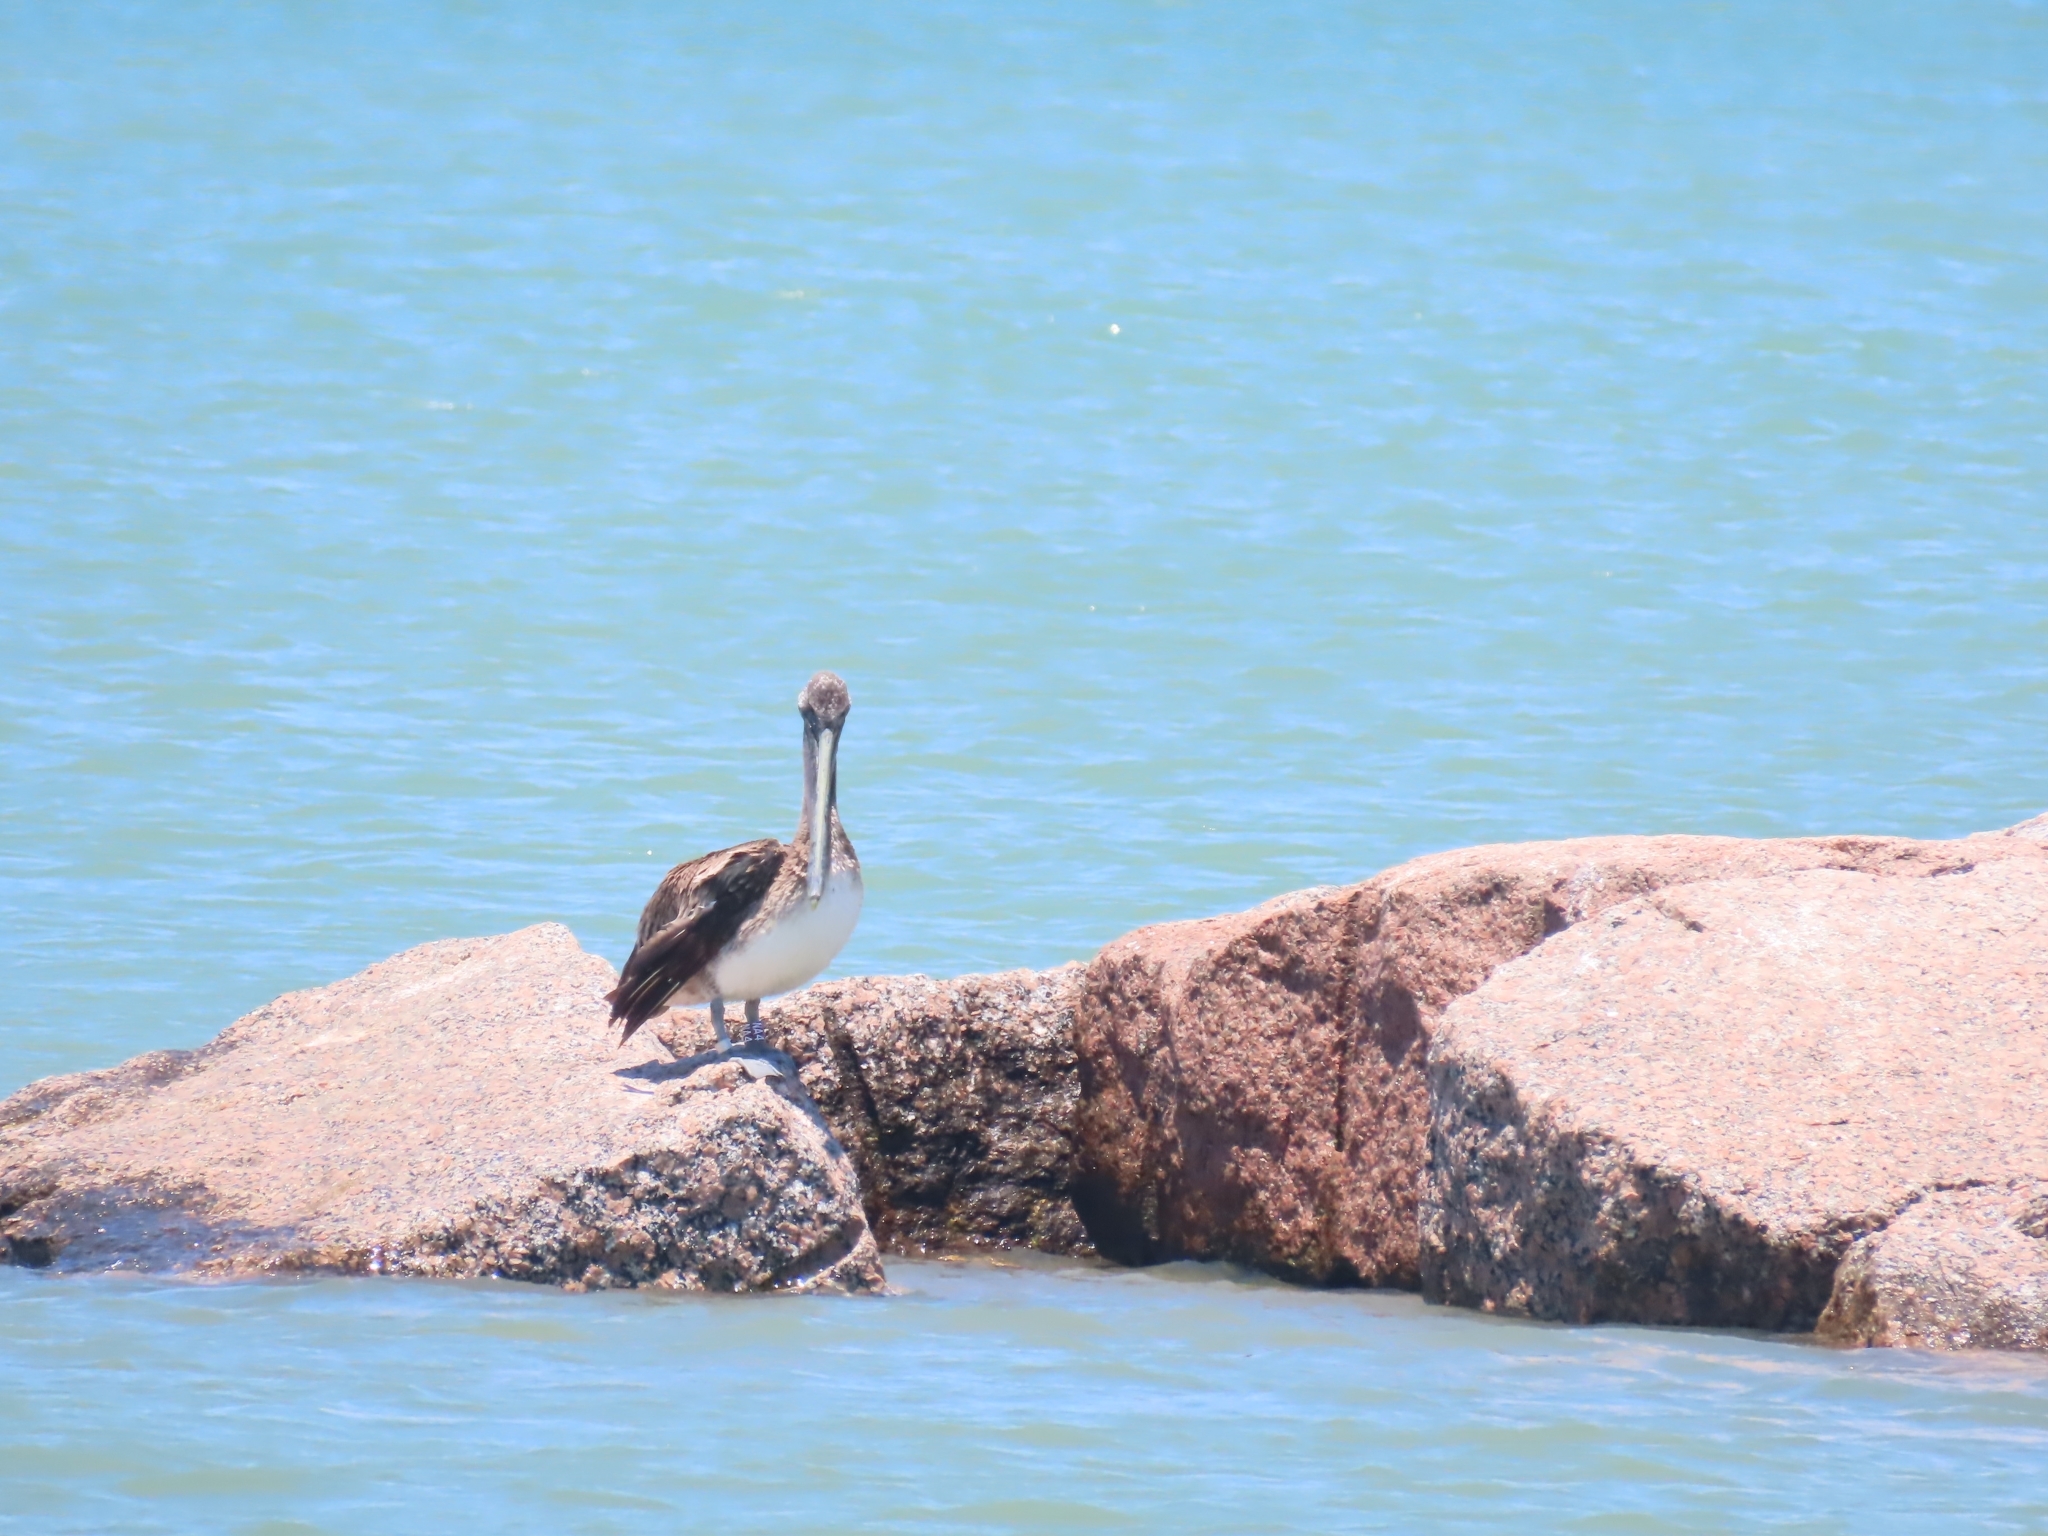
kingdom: Animalia
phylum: Chordata
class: Aves
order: Pelecaniformes
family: Pelecanidae
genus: Pelecanus
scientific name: Pelecanus occidentalis
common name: Brown pelican
